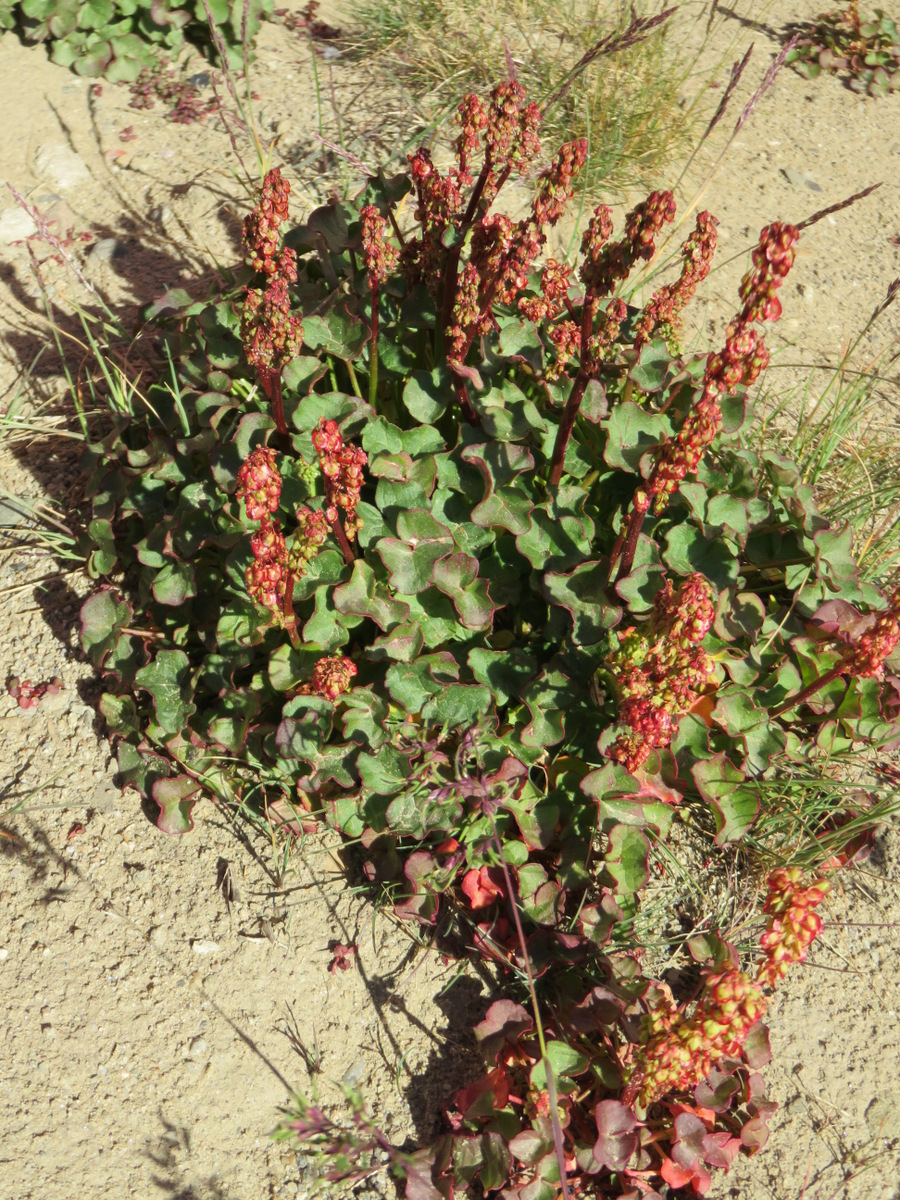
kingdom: Plantae
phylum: Tracheophyta
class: Magnoliopsida
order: Caryophyllales
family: Polygonaceae
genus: Oxyria
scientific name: Oxyria digyna
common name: Alpine mountain-sorrel
